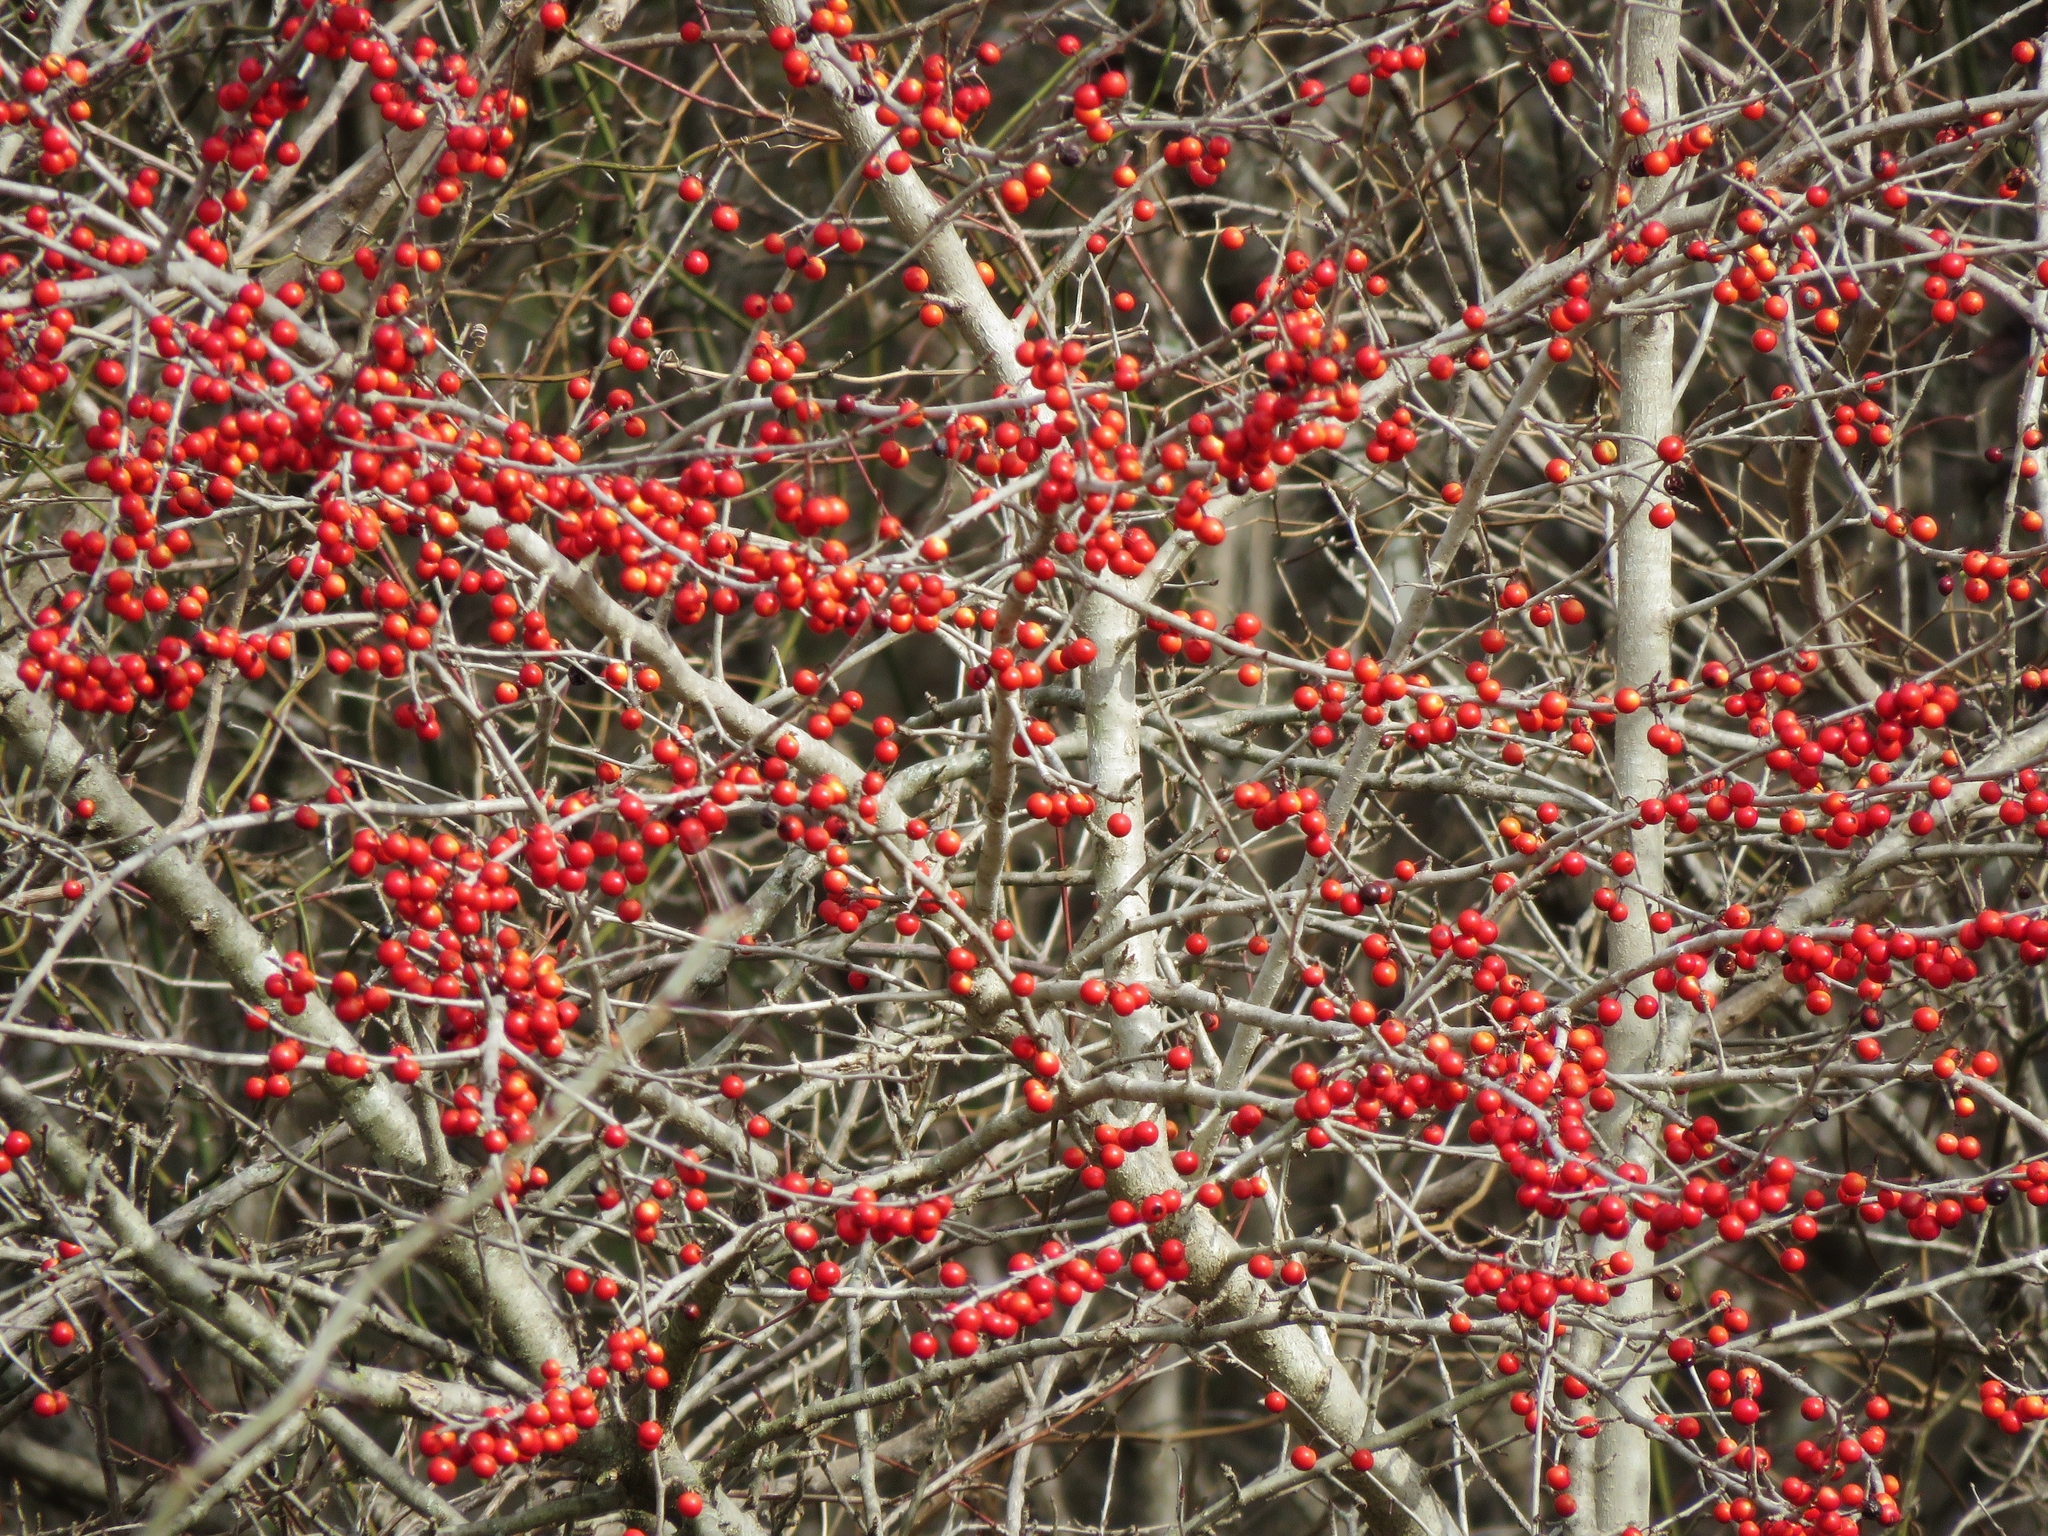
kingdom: Plantae
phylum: Tracheophyta
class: Magnoliopsida
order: Aquifoliales
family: Aquifoliaceae
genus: Ilex
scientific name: Ilex decidua
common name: Possum-haw
